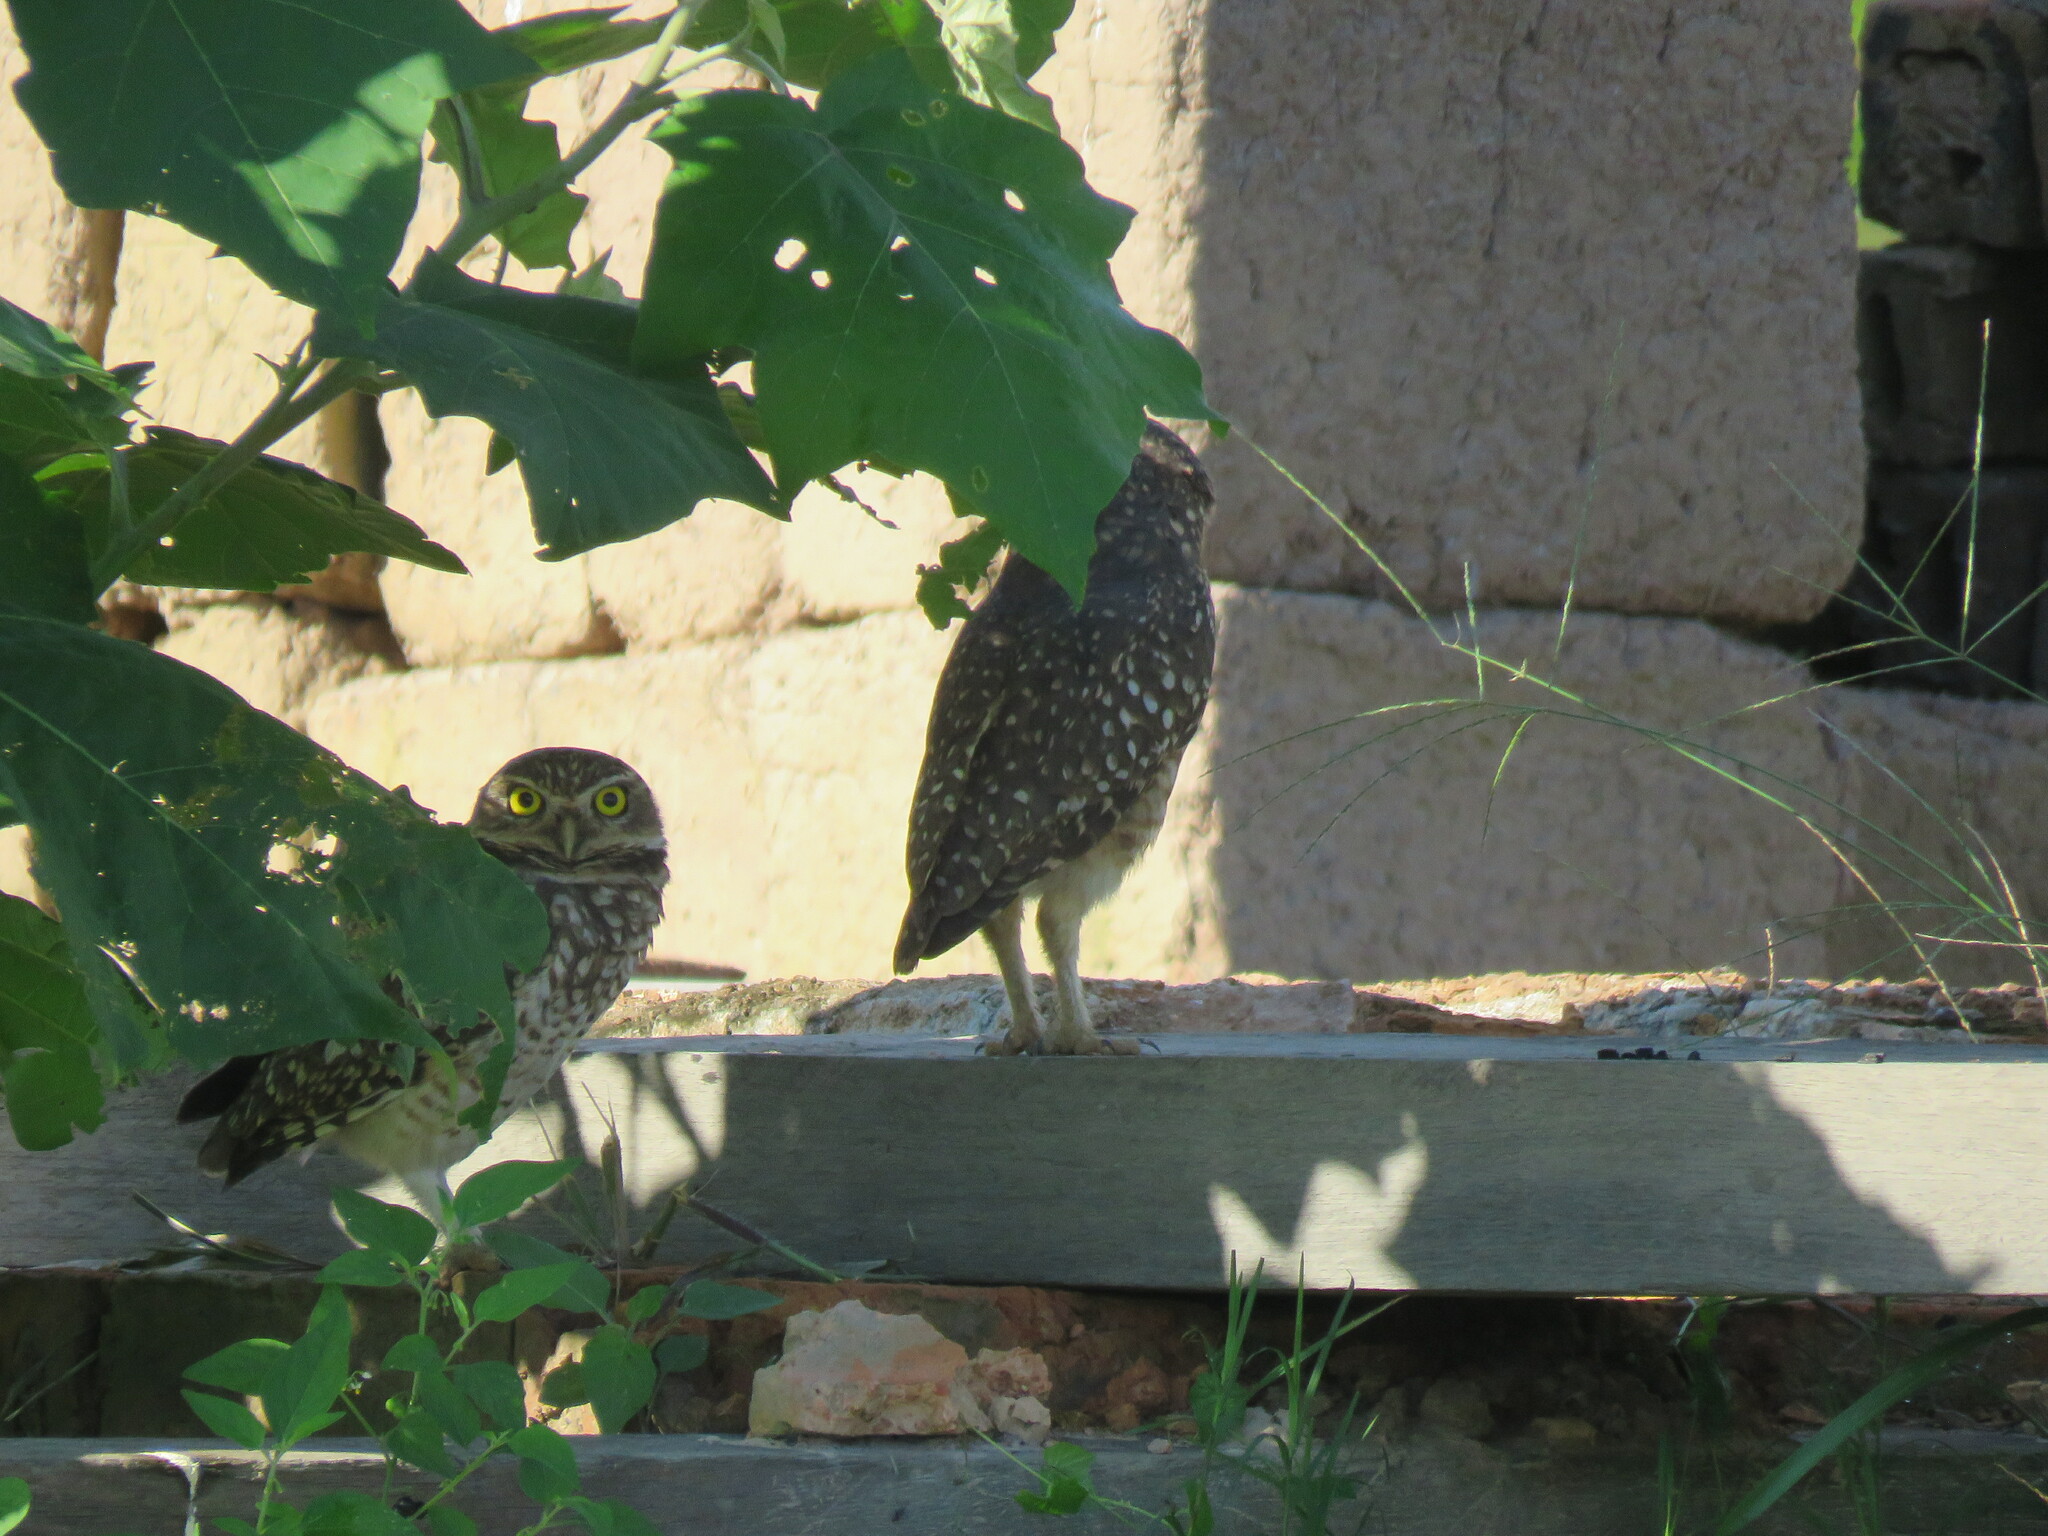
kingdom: Animalia
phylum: Chordata
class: Aves
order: Strigiformes
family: Strigidae
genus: Athene
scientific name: Athene cunicularia
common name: Burrowing owl
